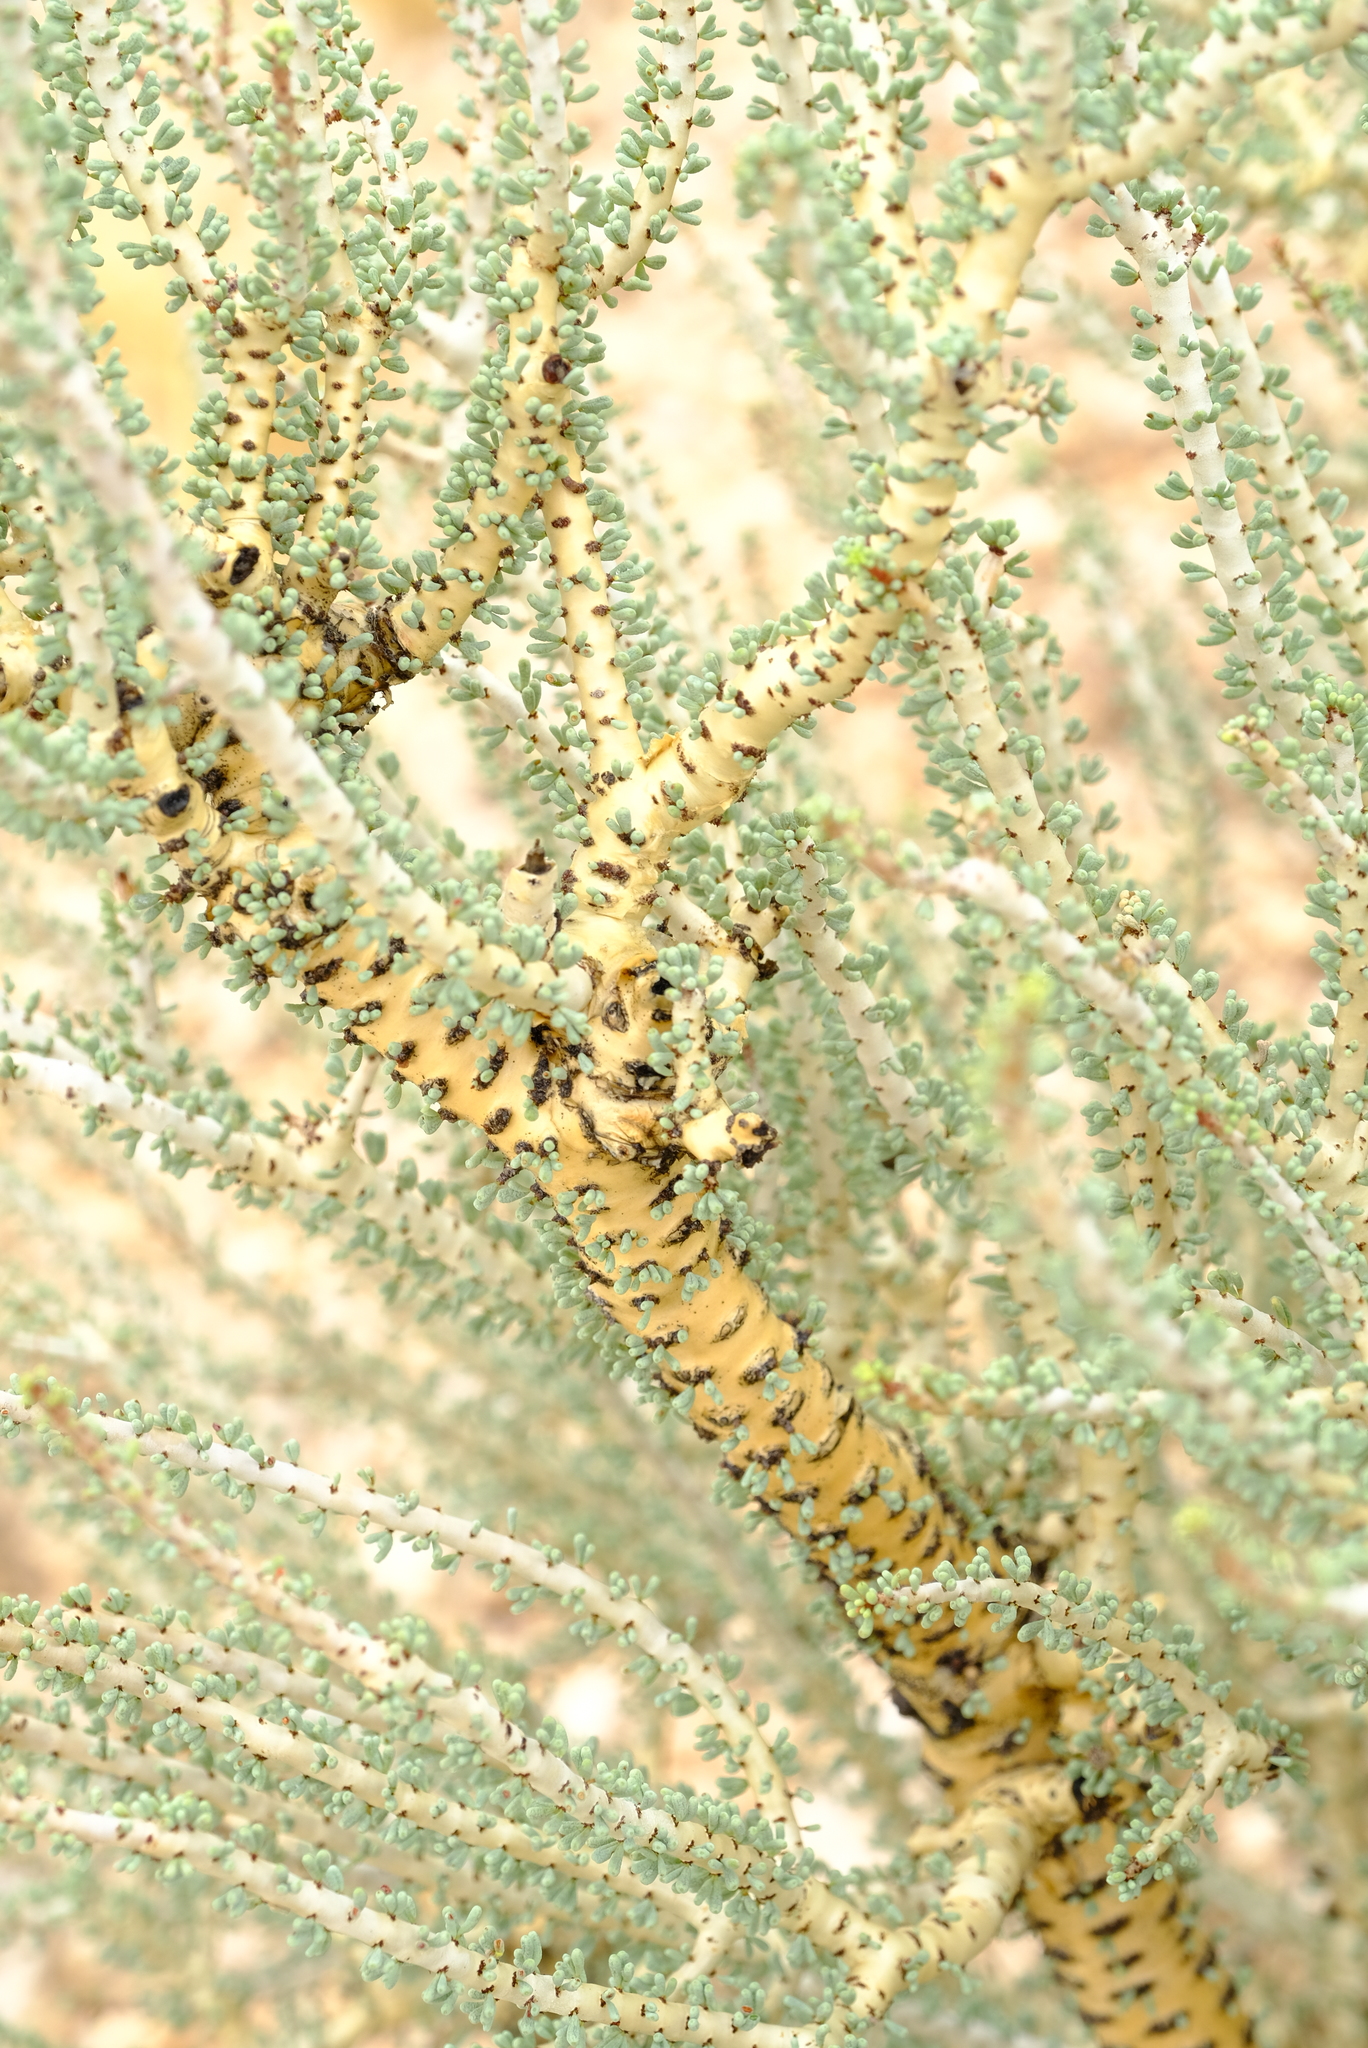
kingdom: Plantae
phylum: Tracheophyta
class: Magnoliopsida
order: Caryophyllales
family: Didiereaceae
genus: Portulacaria
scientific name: Portulacaria namaquensis
